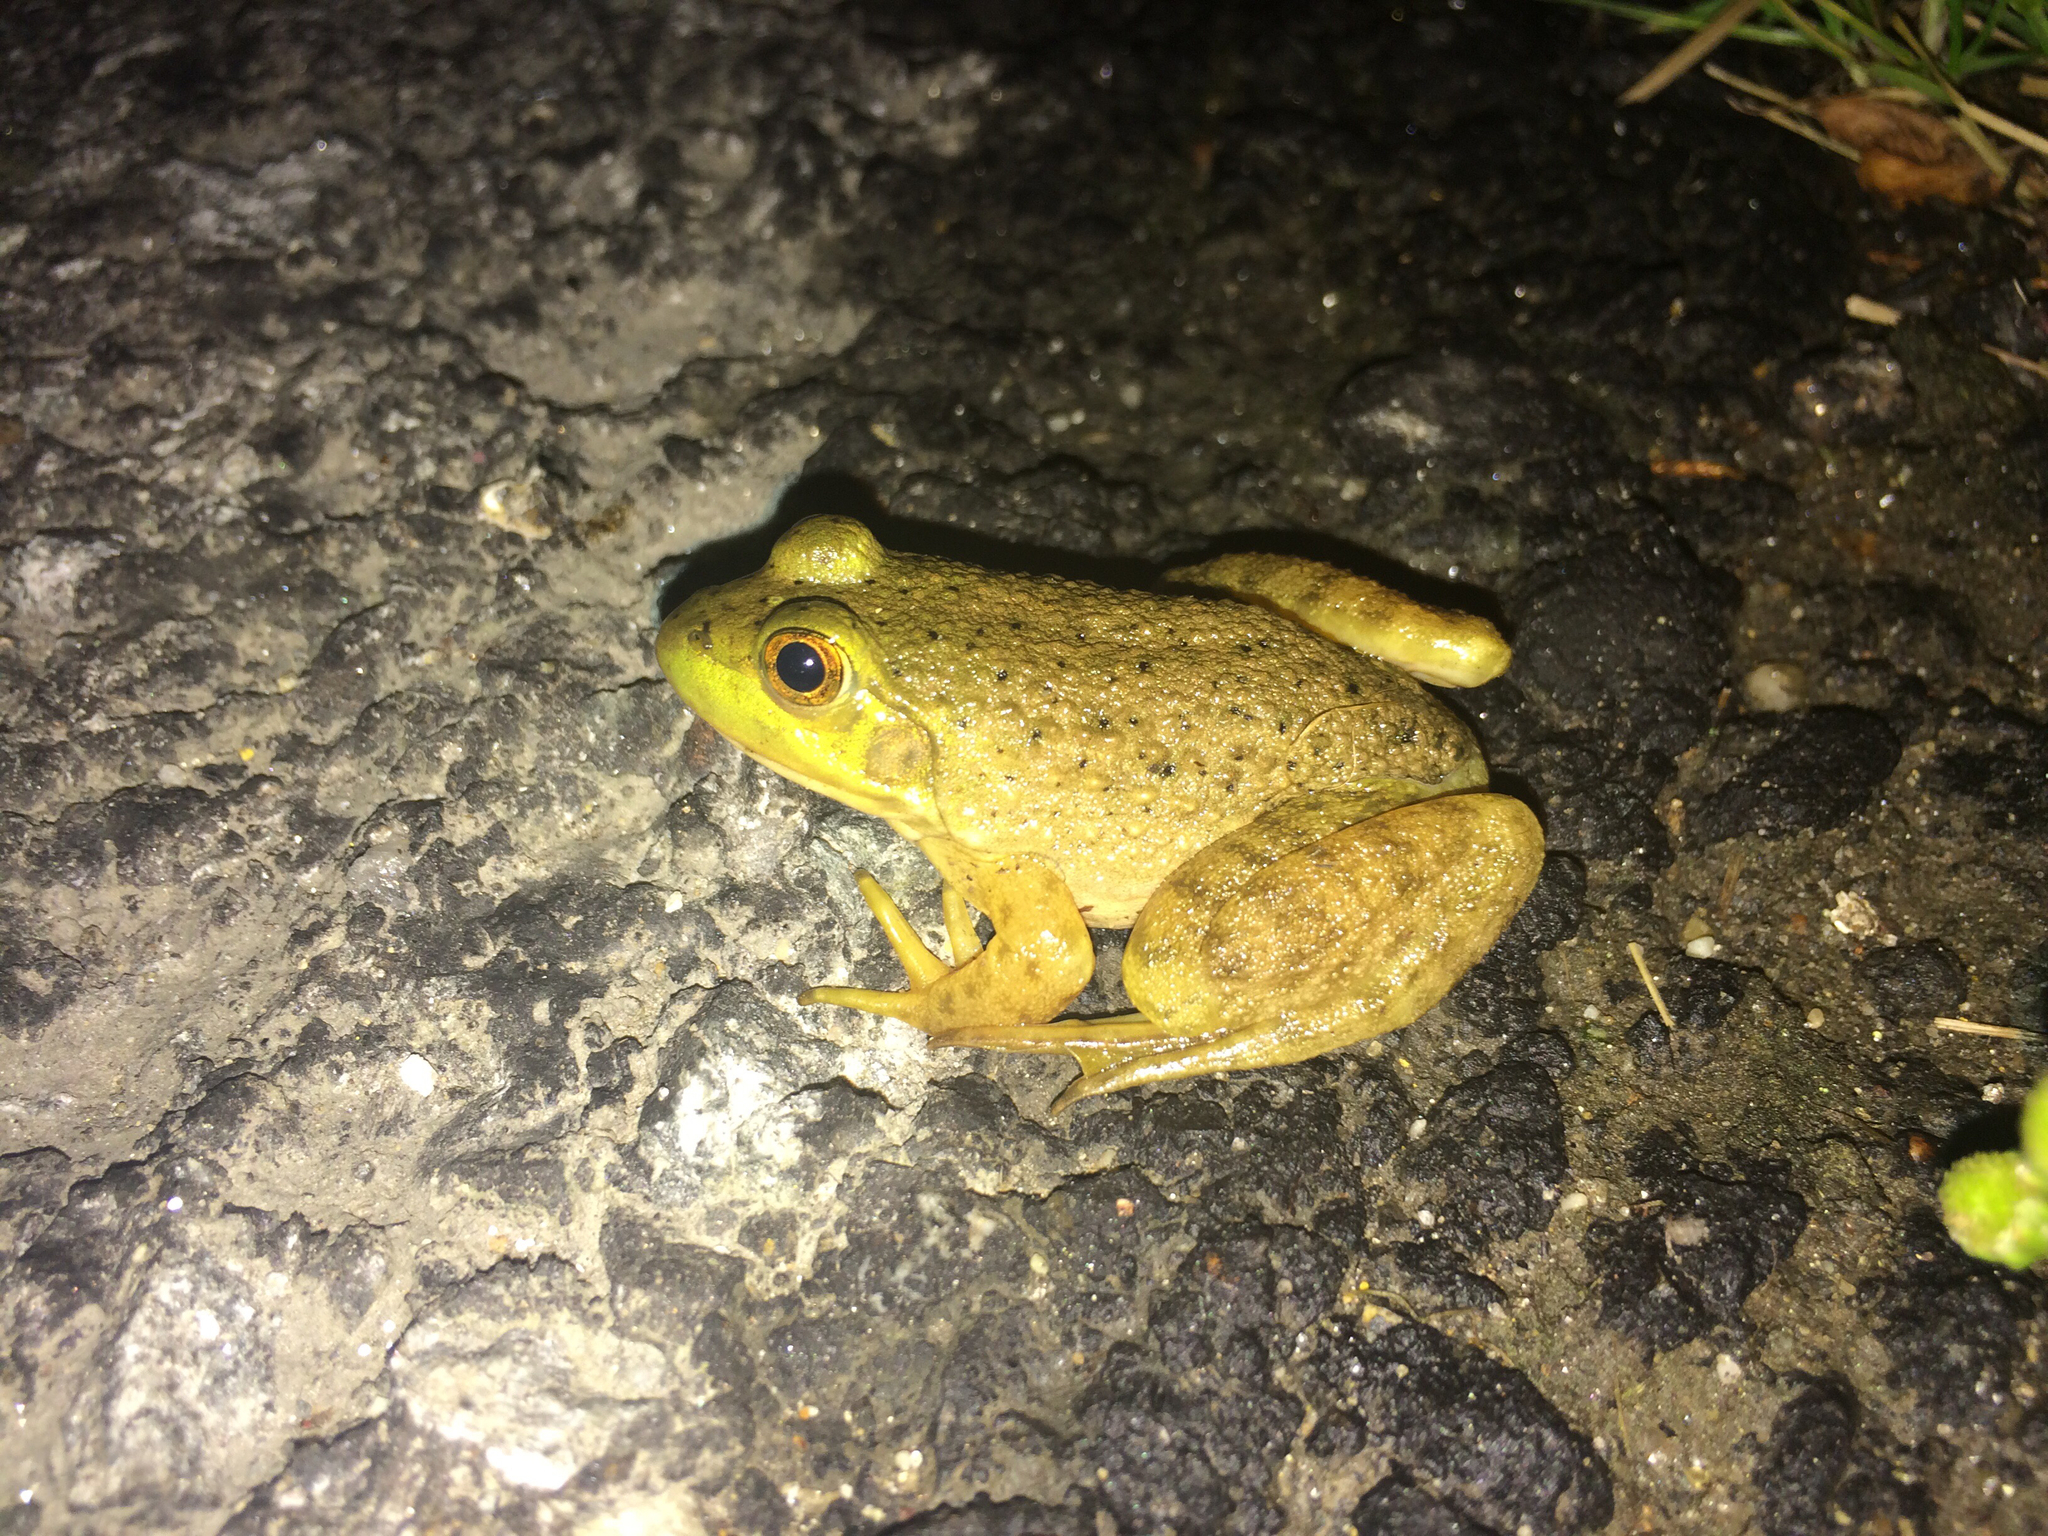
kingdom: Animalia
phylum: Chordata
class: Amphibia
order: Anura
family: Ranidae
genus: Lithobates
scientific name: Lithobates catesbeianus
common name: American bullfrog
